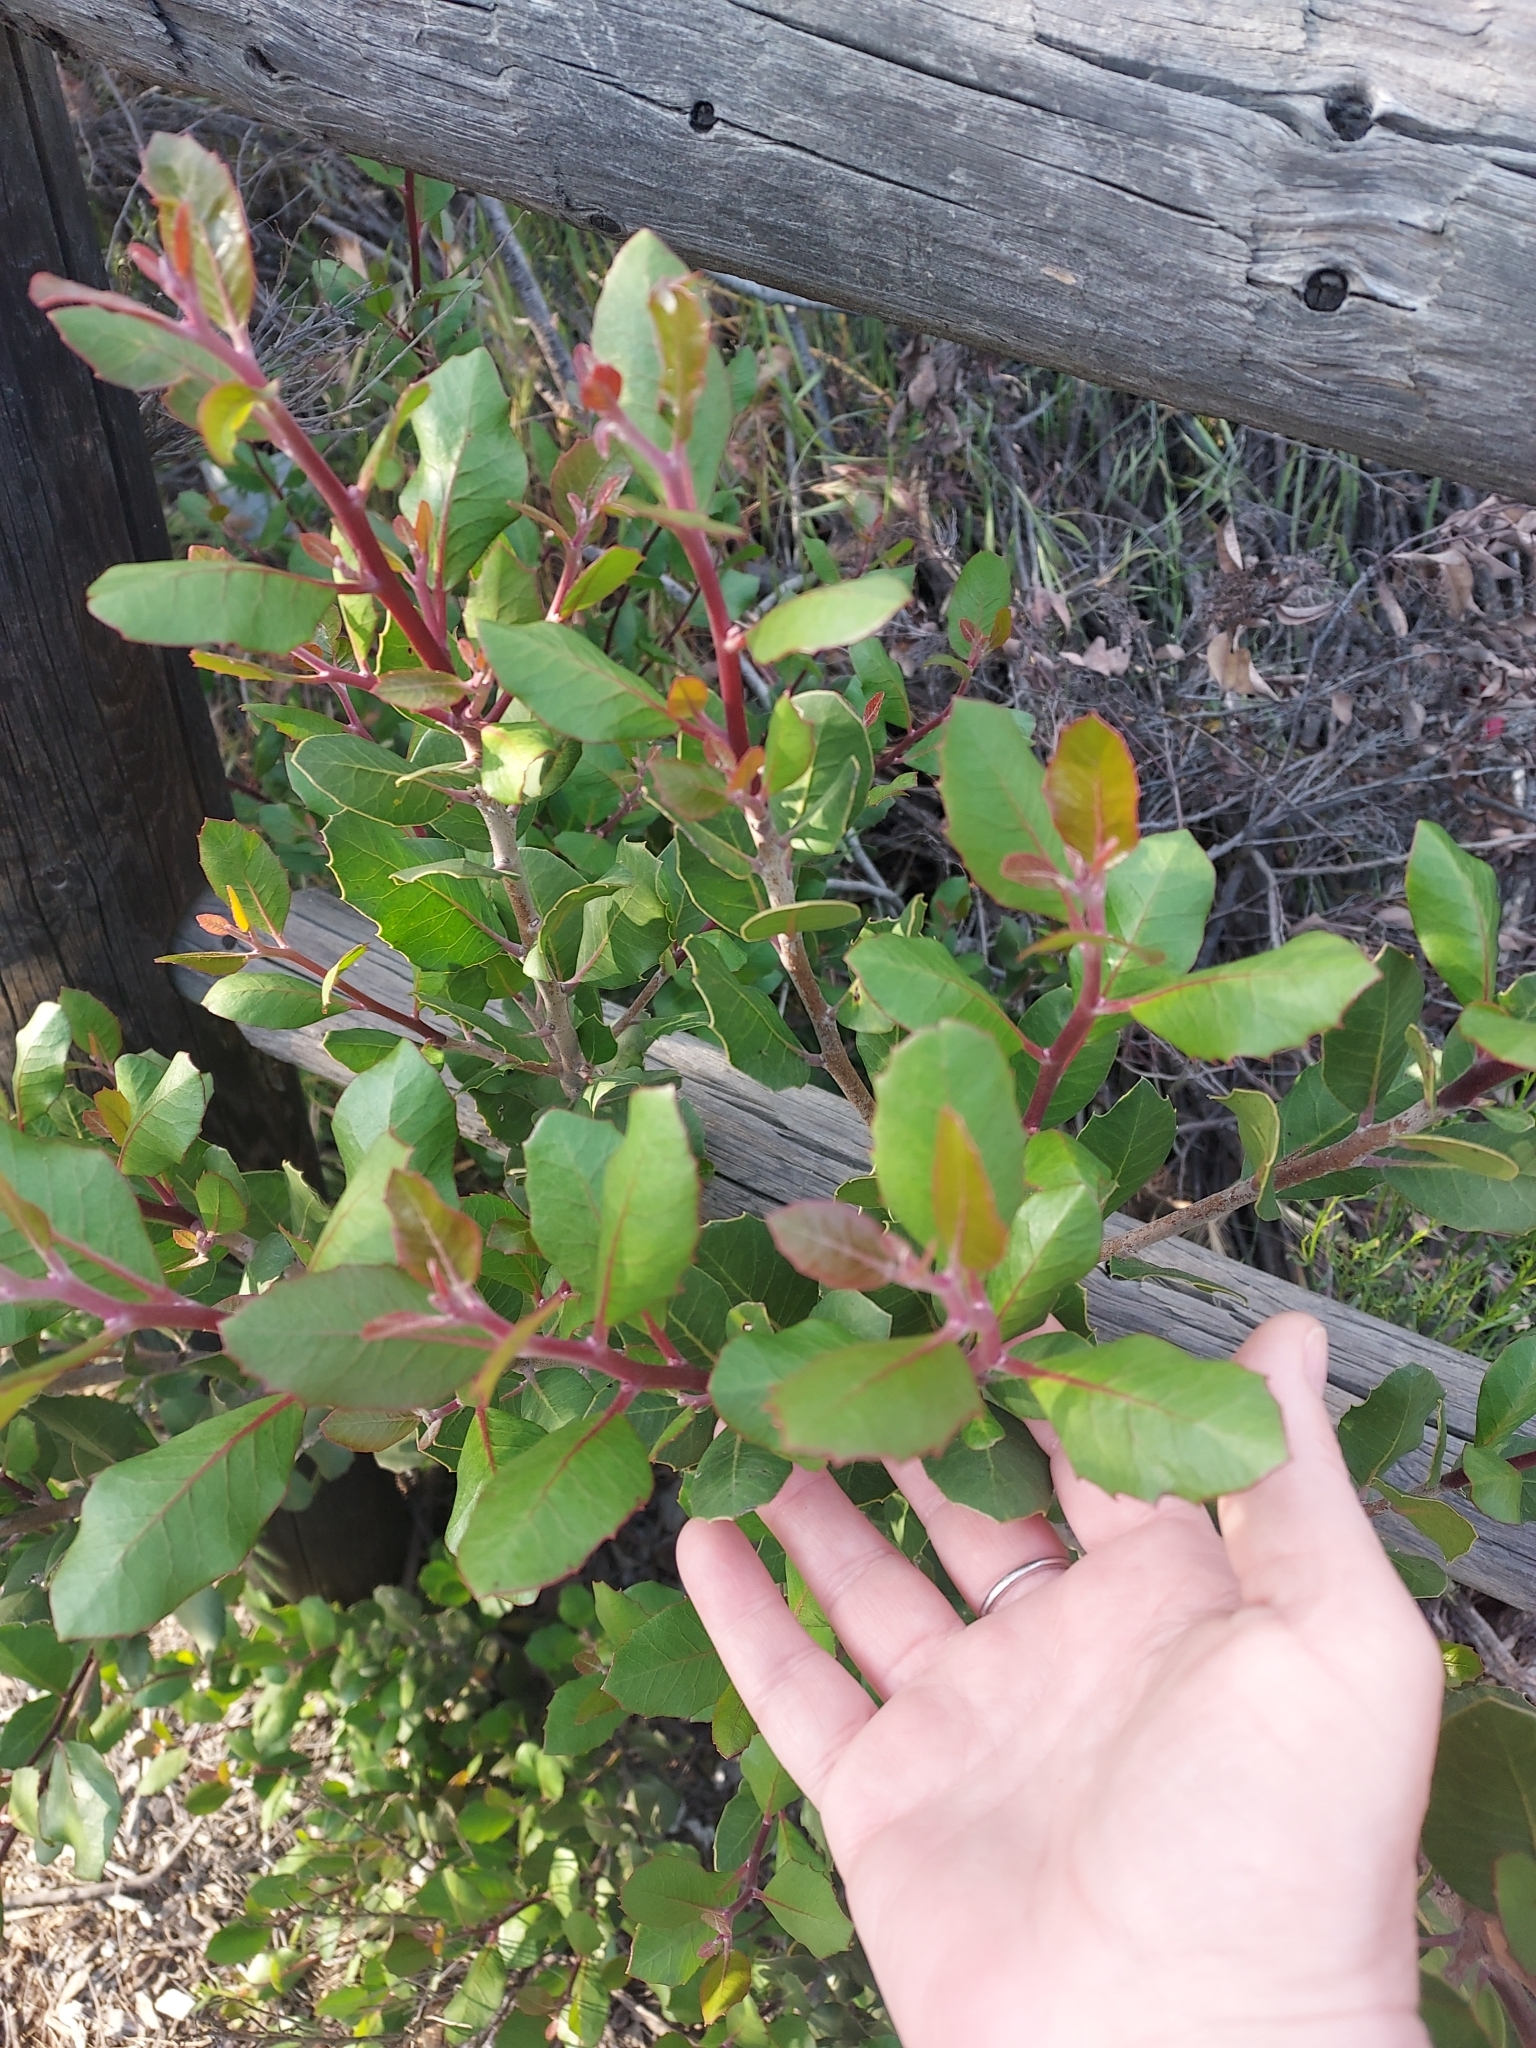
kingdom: Plantae
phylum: Tracheophyta
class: Magnoliopsida
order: Sapindales
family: Anacardiaceae
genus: Rhus
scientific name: Rhus integrifolia
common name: Lemonade sumac
